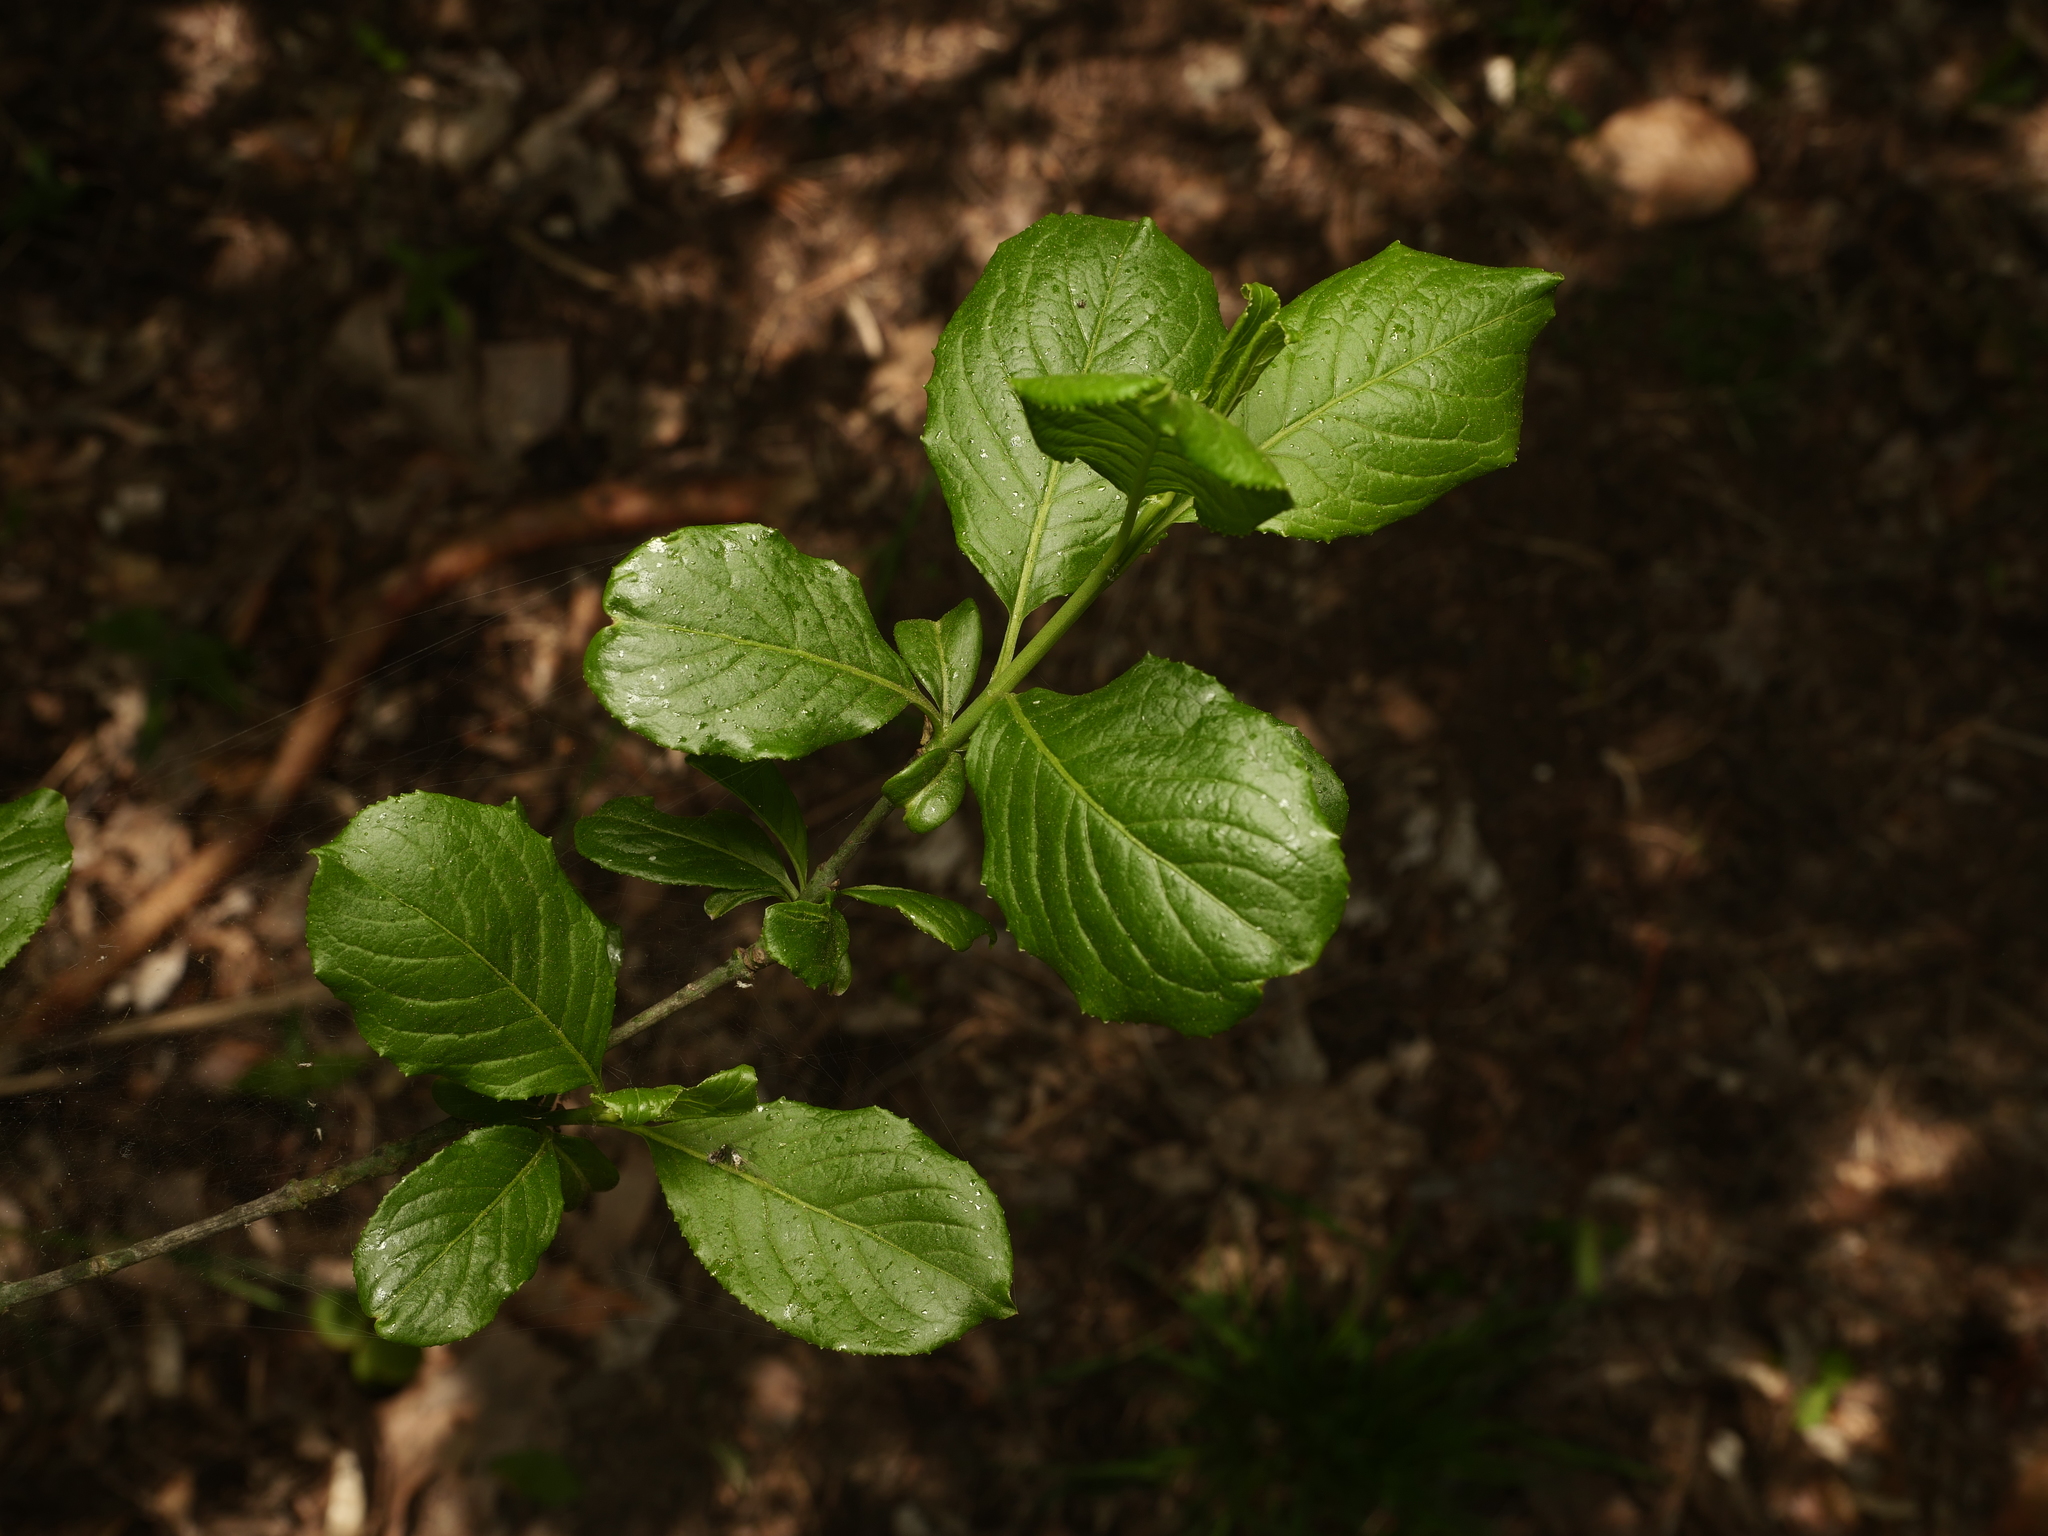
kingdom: Plantae
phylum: Tracheophyta
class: Magnoliopsida
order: Celastrales
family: Celastraceae
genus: Euonymus
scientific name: Euonymus europaeus
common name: Spindle
